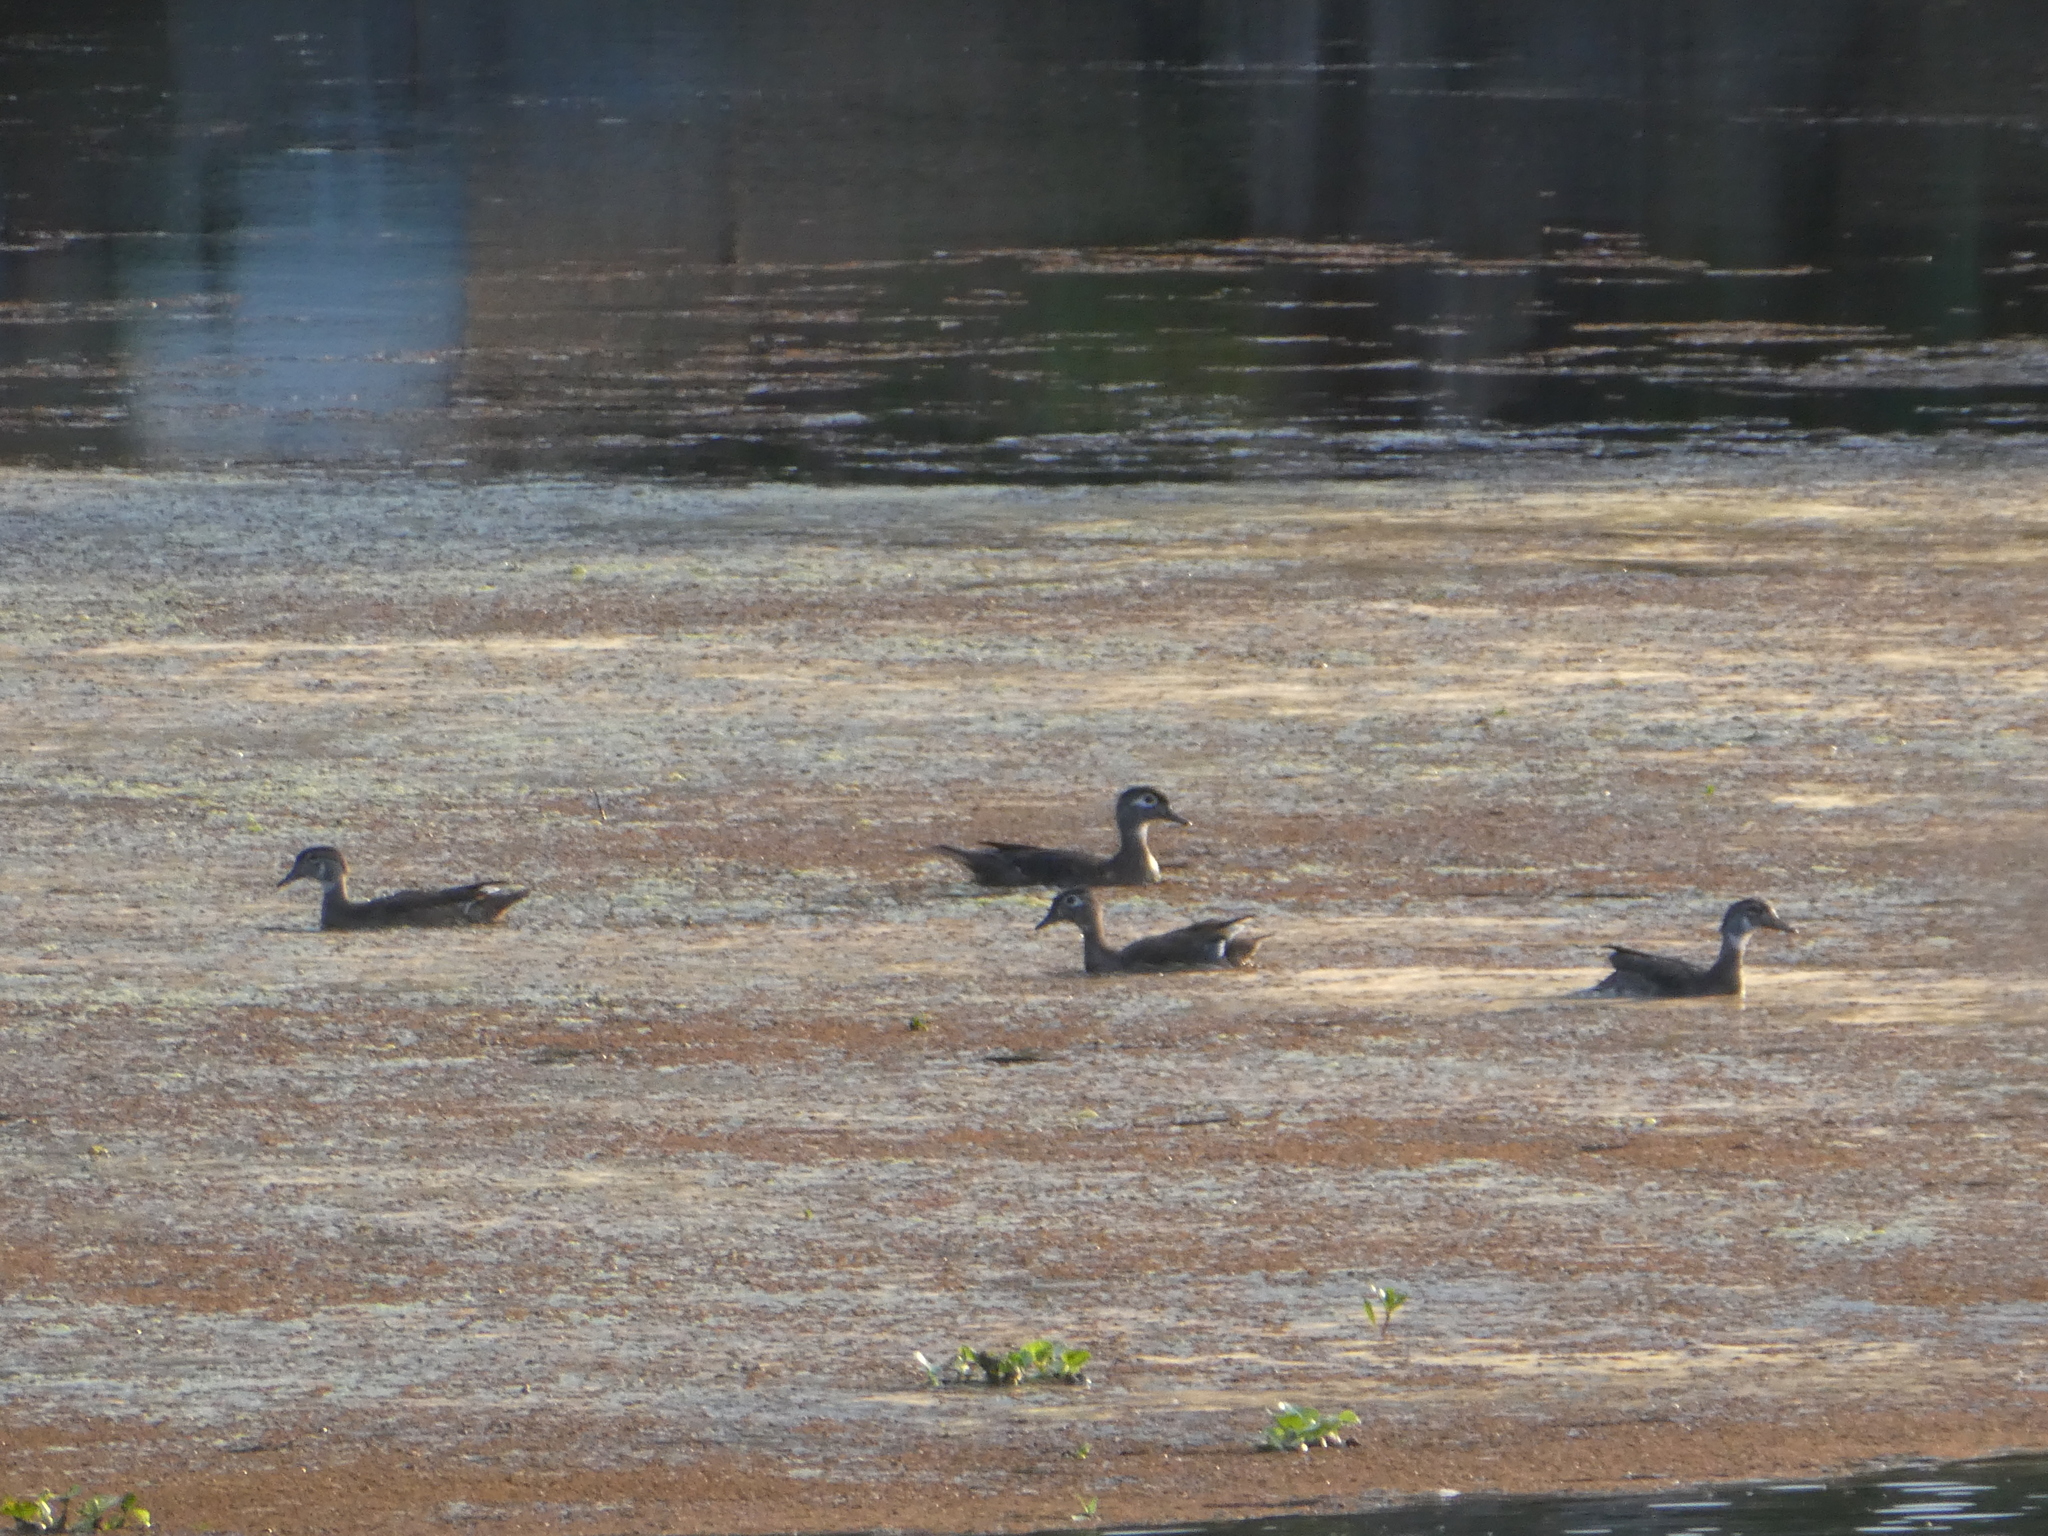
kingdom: Animalia
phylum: Chordata
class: Aves
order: Anseriformes
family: Anatidae
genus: Aix
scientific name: Aix sponsa
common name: Wood duck
